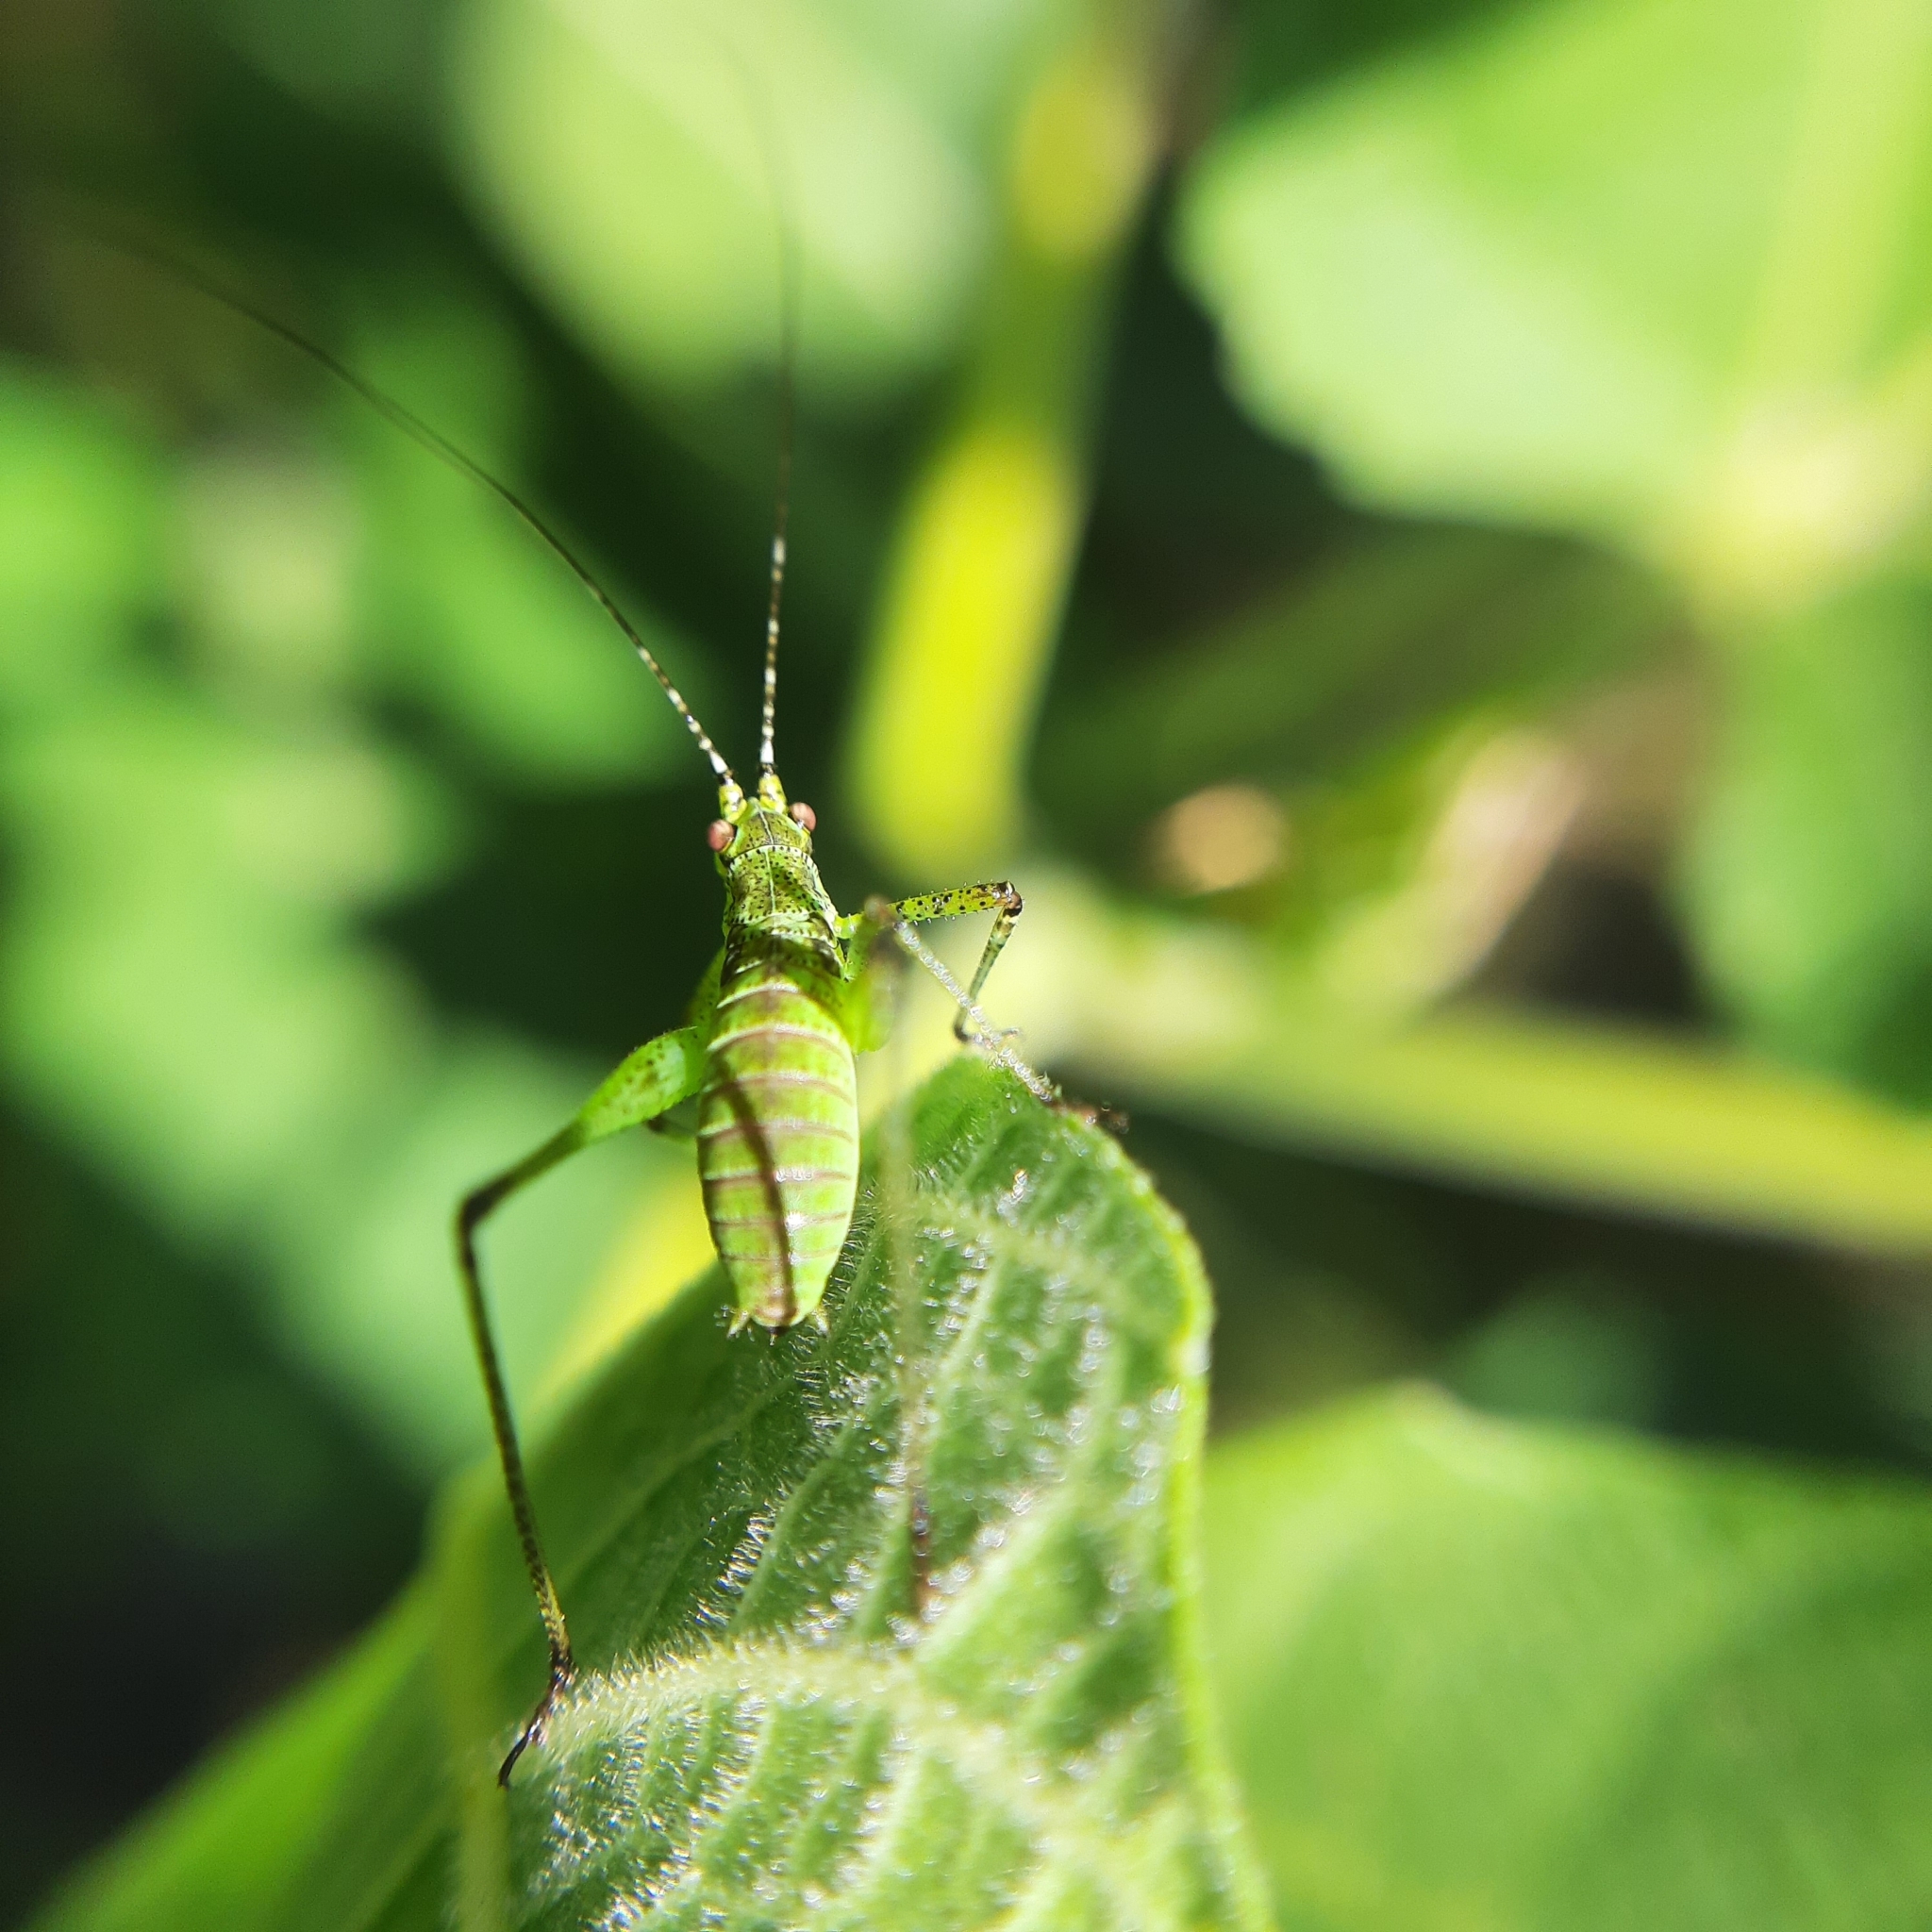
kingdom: Animalia
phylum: Arthropoda
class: Insecta
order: Orthoptera
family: Tettigoniidae
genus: Phaneroptera
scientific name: Phaneroptera nana
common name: Southern sickle bush-cricket
